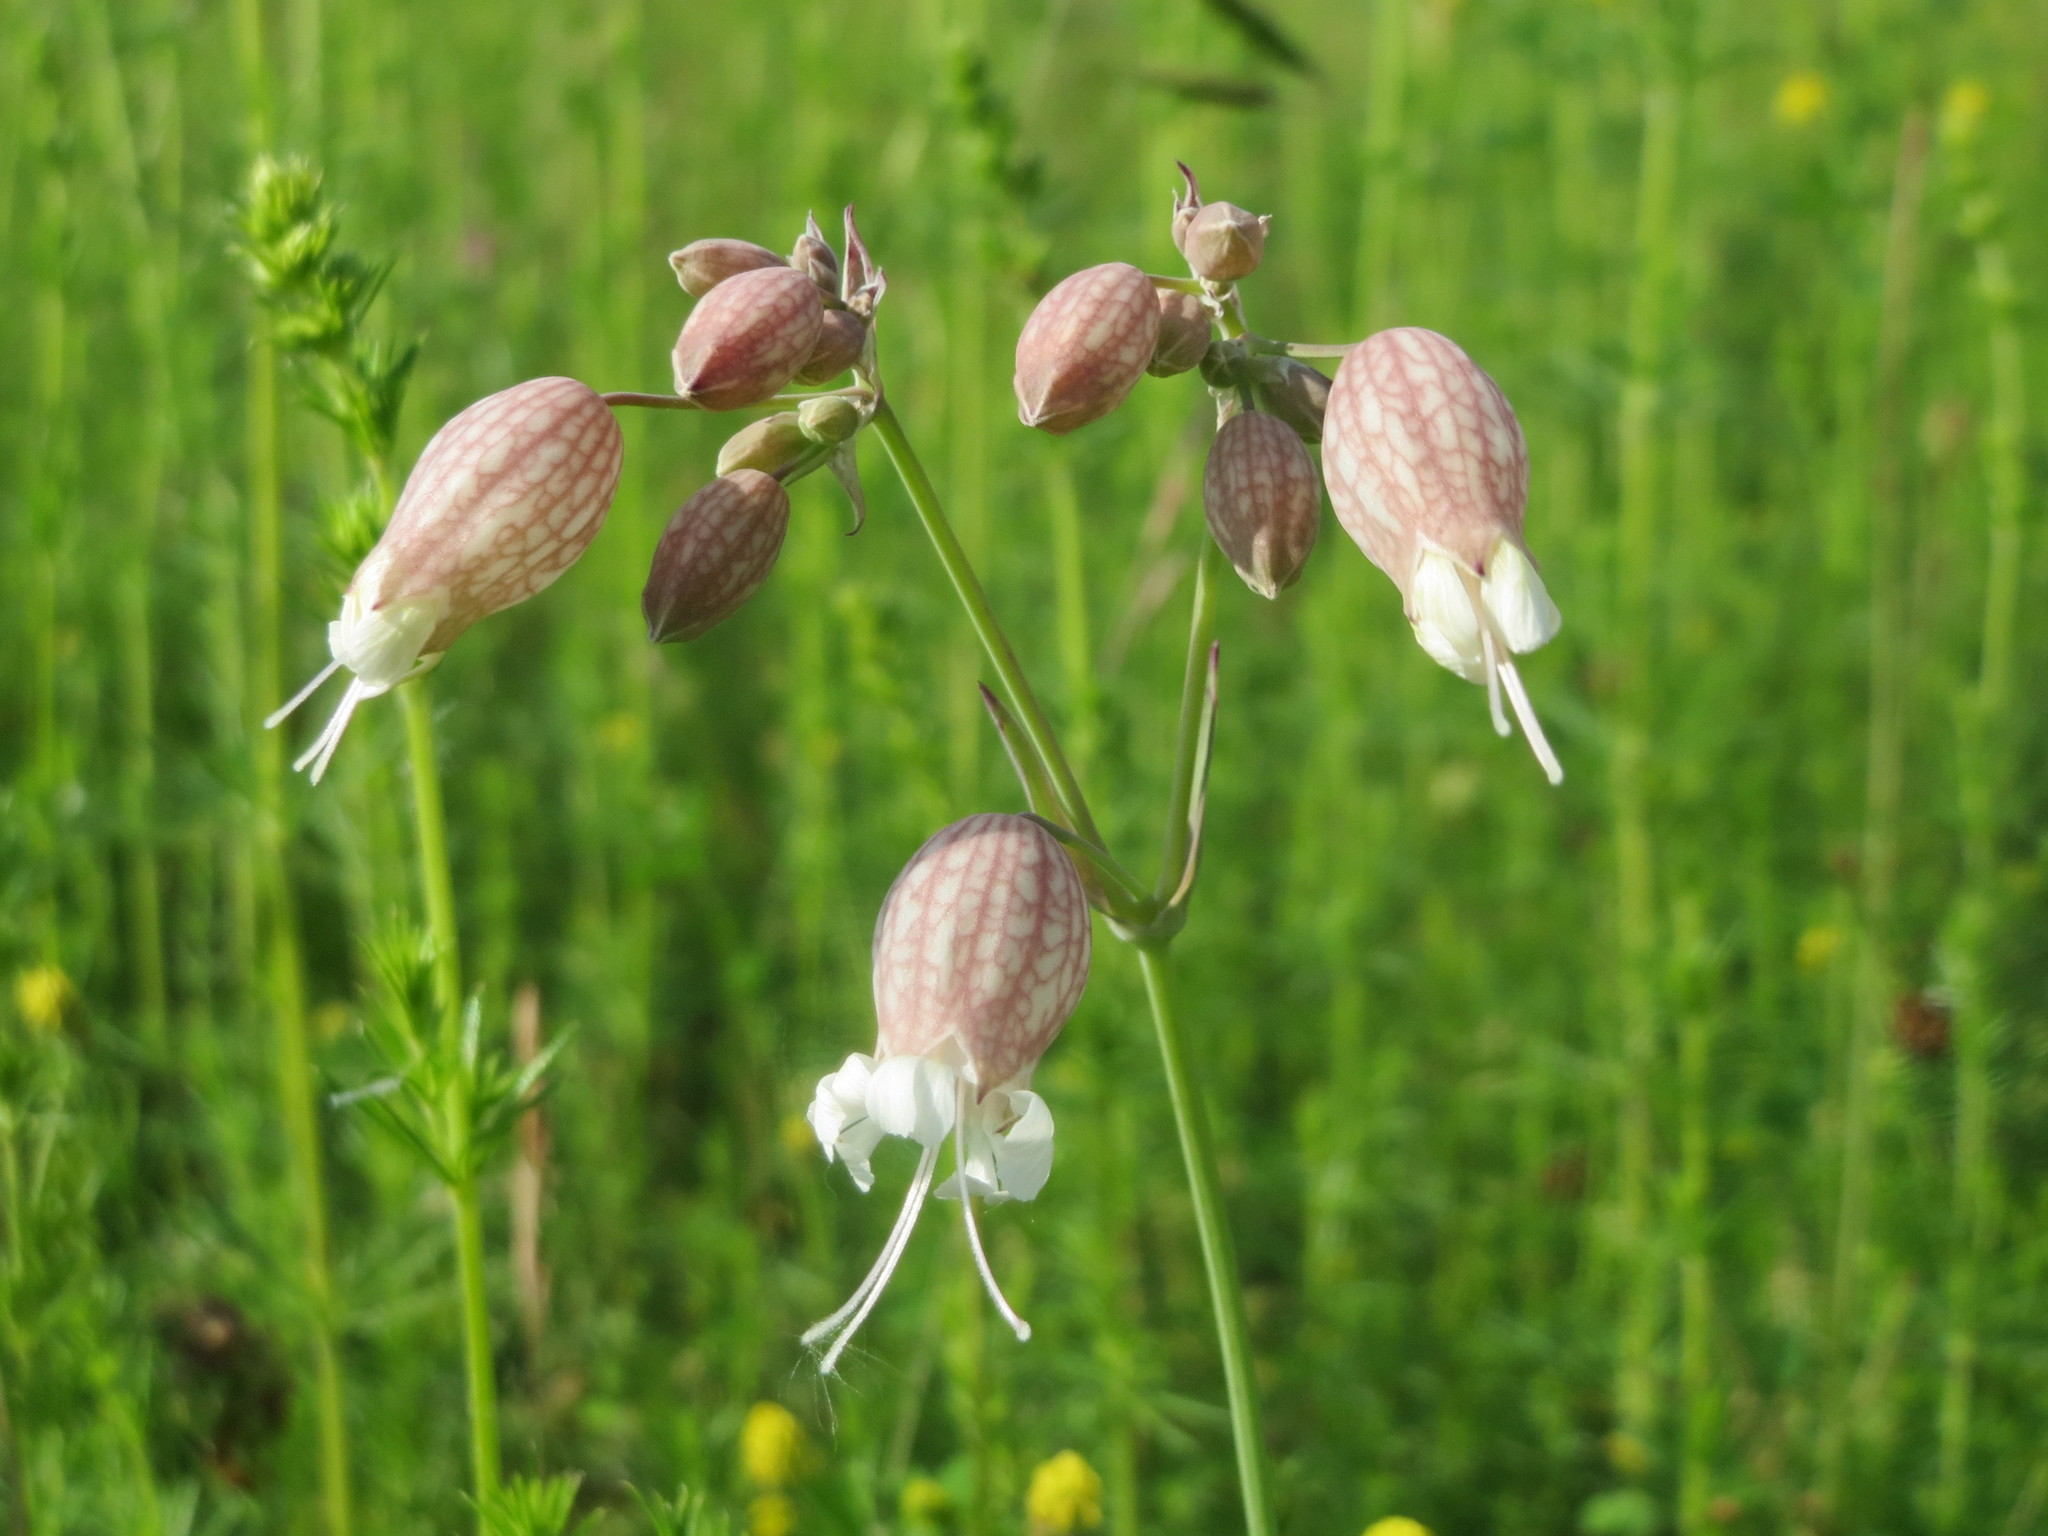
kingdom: Plantae
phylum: Tracheophyta
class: Magnoliopsida
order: Caryophyllales
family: Caryophyllaceae
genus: Silene
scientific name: Silene vulgaris
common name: Bladder campion
